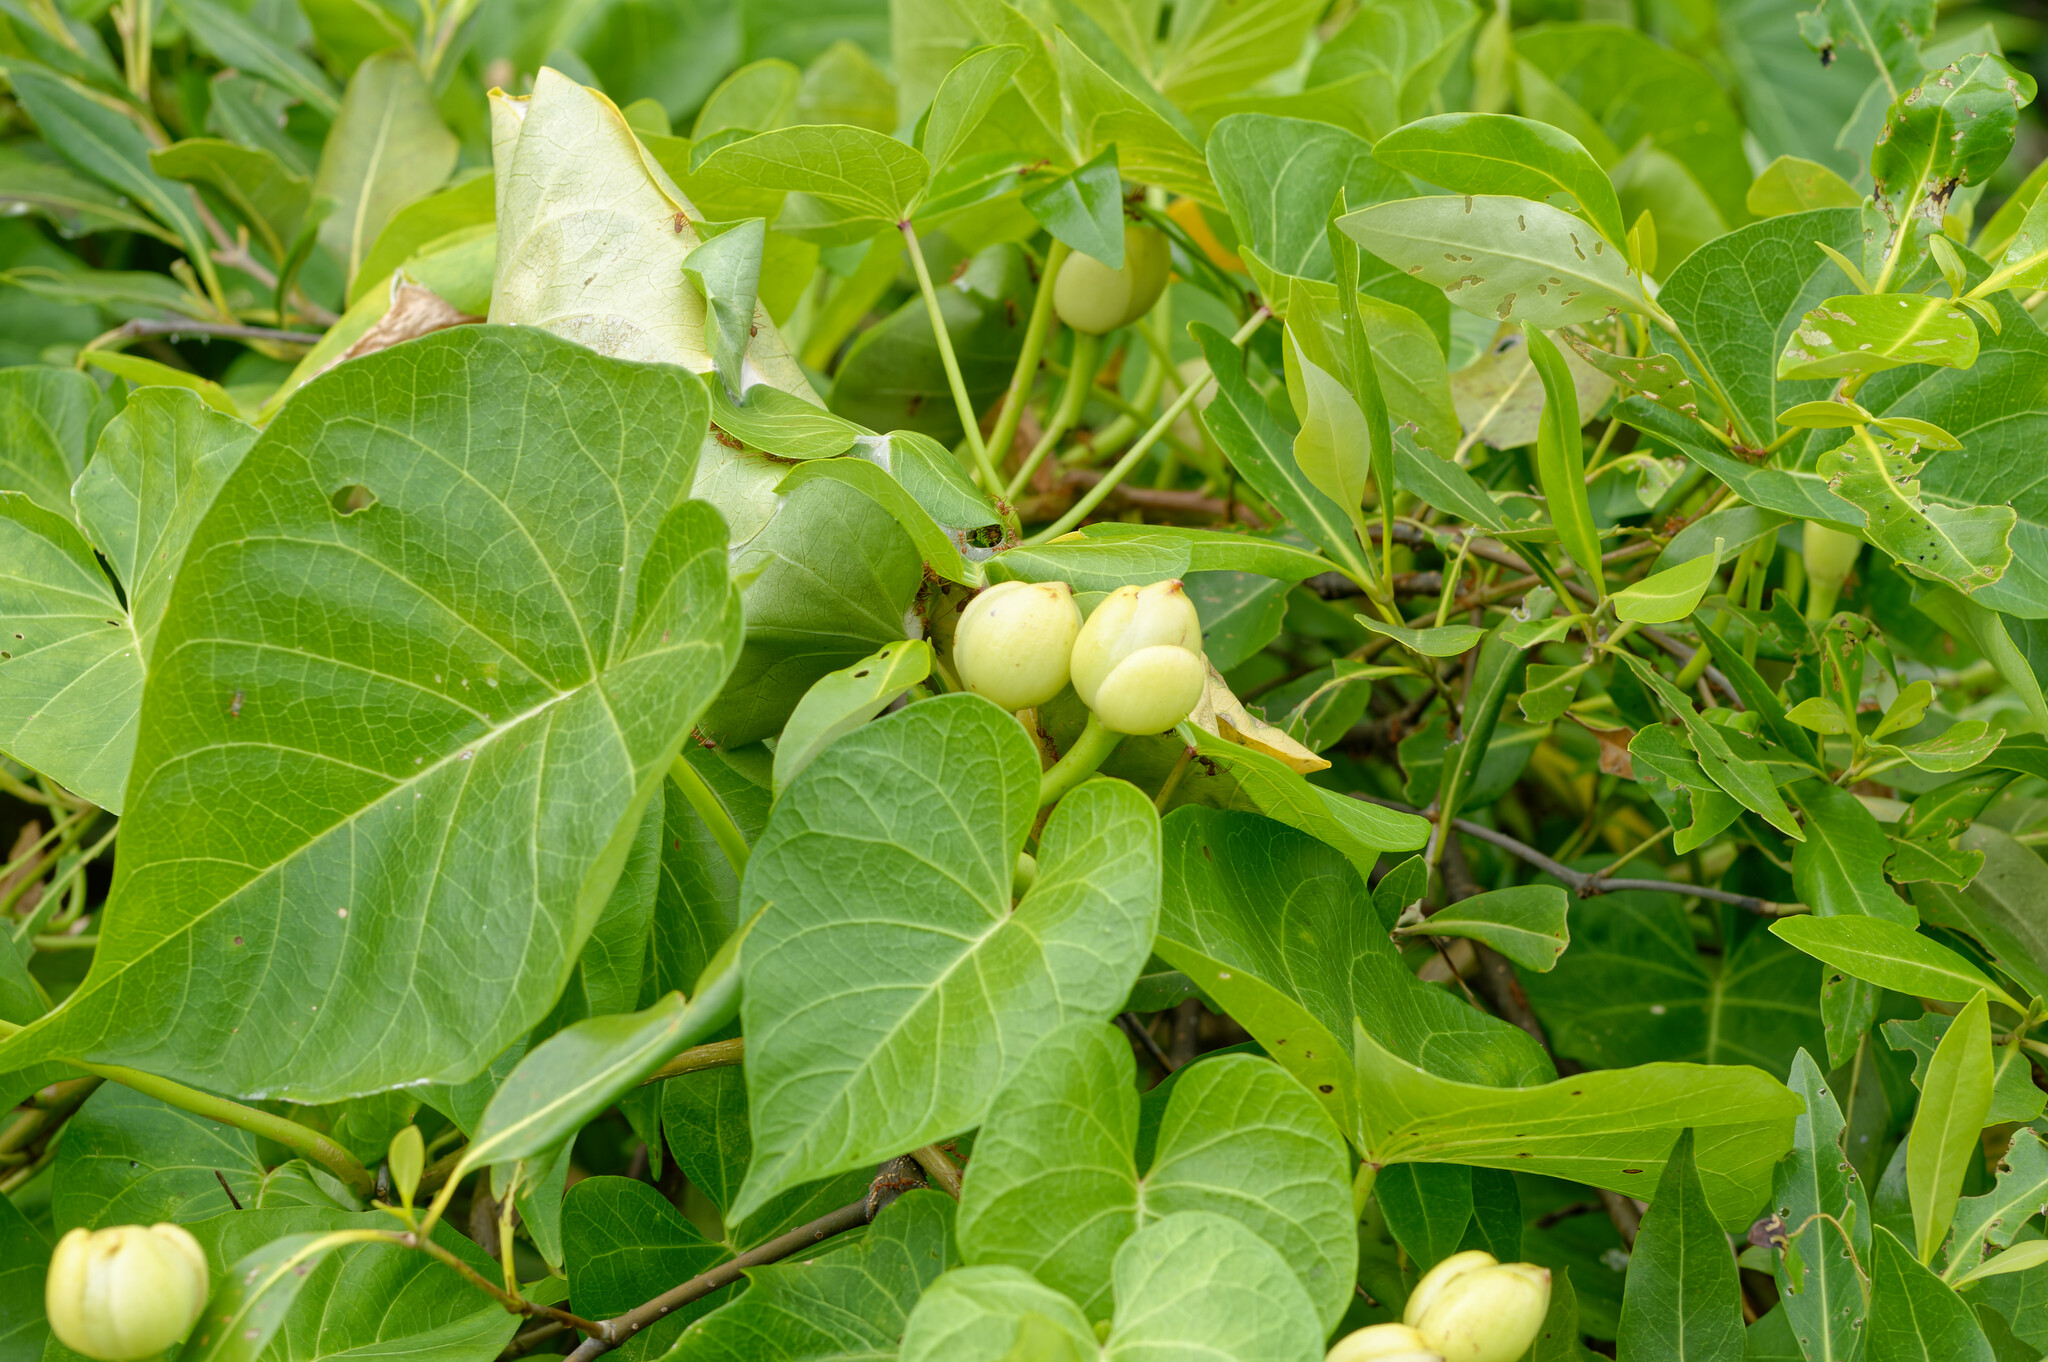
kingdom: Plantae
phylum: Tracheophyta
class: Magnoliopsida
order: Solanales
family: Convolvulaceae
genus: Ipomoea
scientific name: Ipomoea violacea
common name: Beach moonflower
